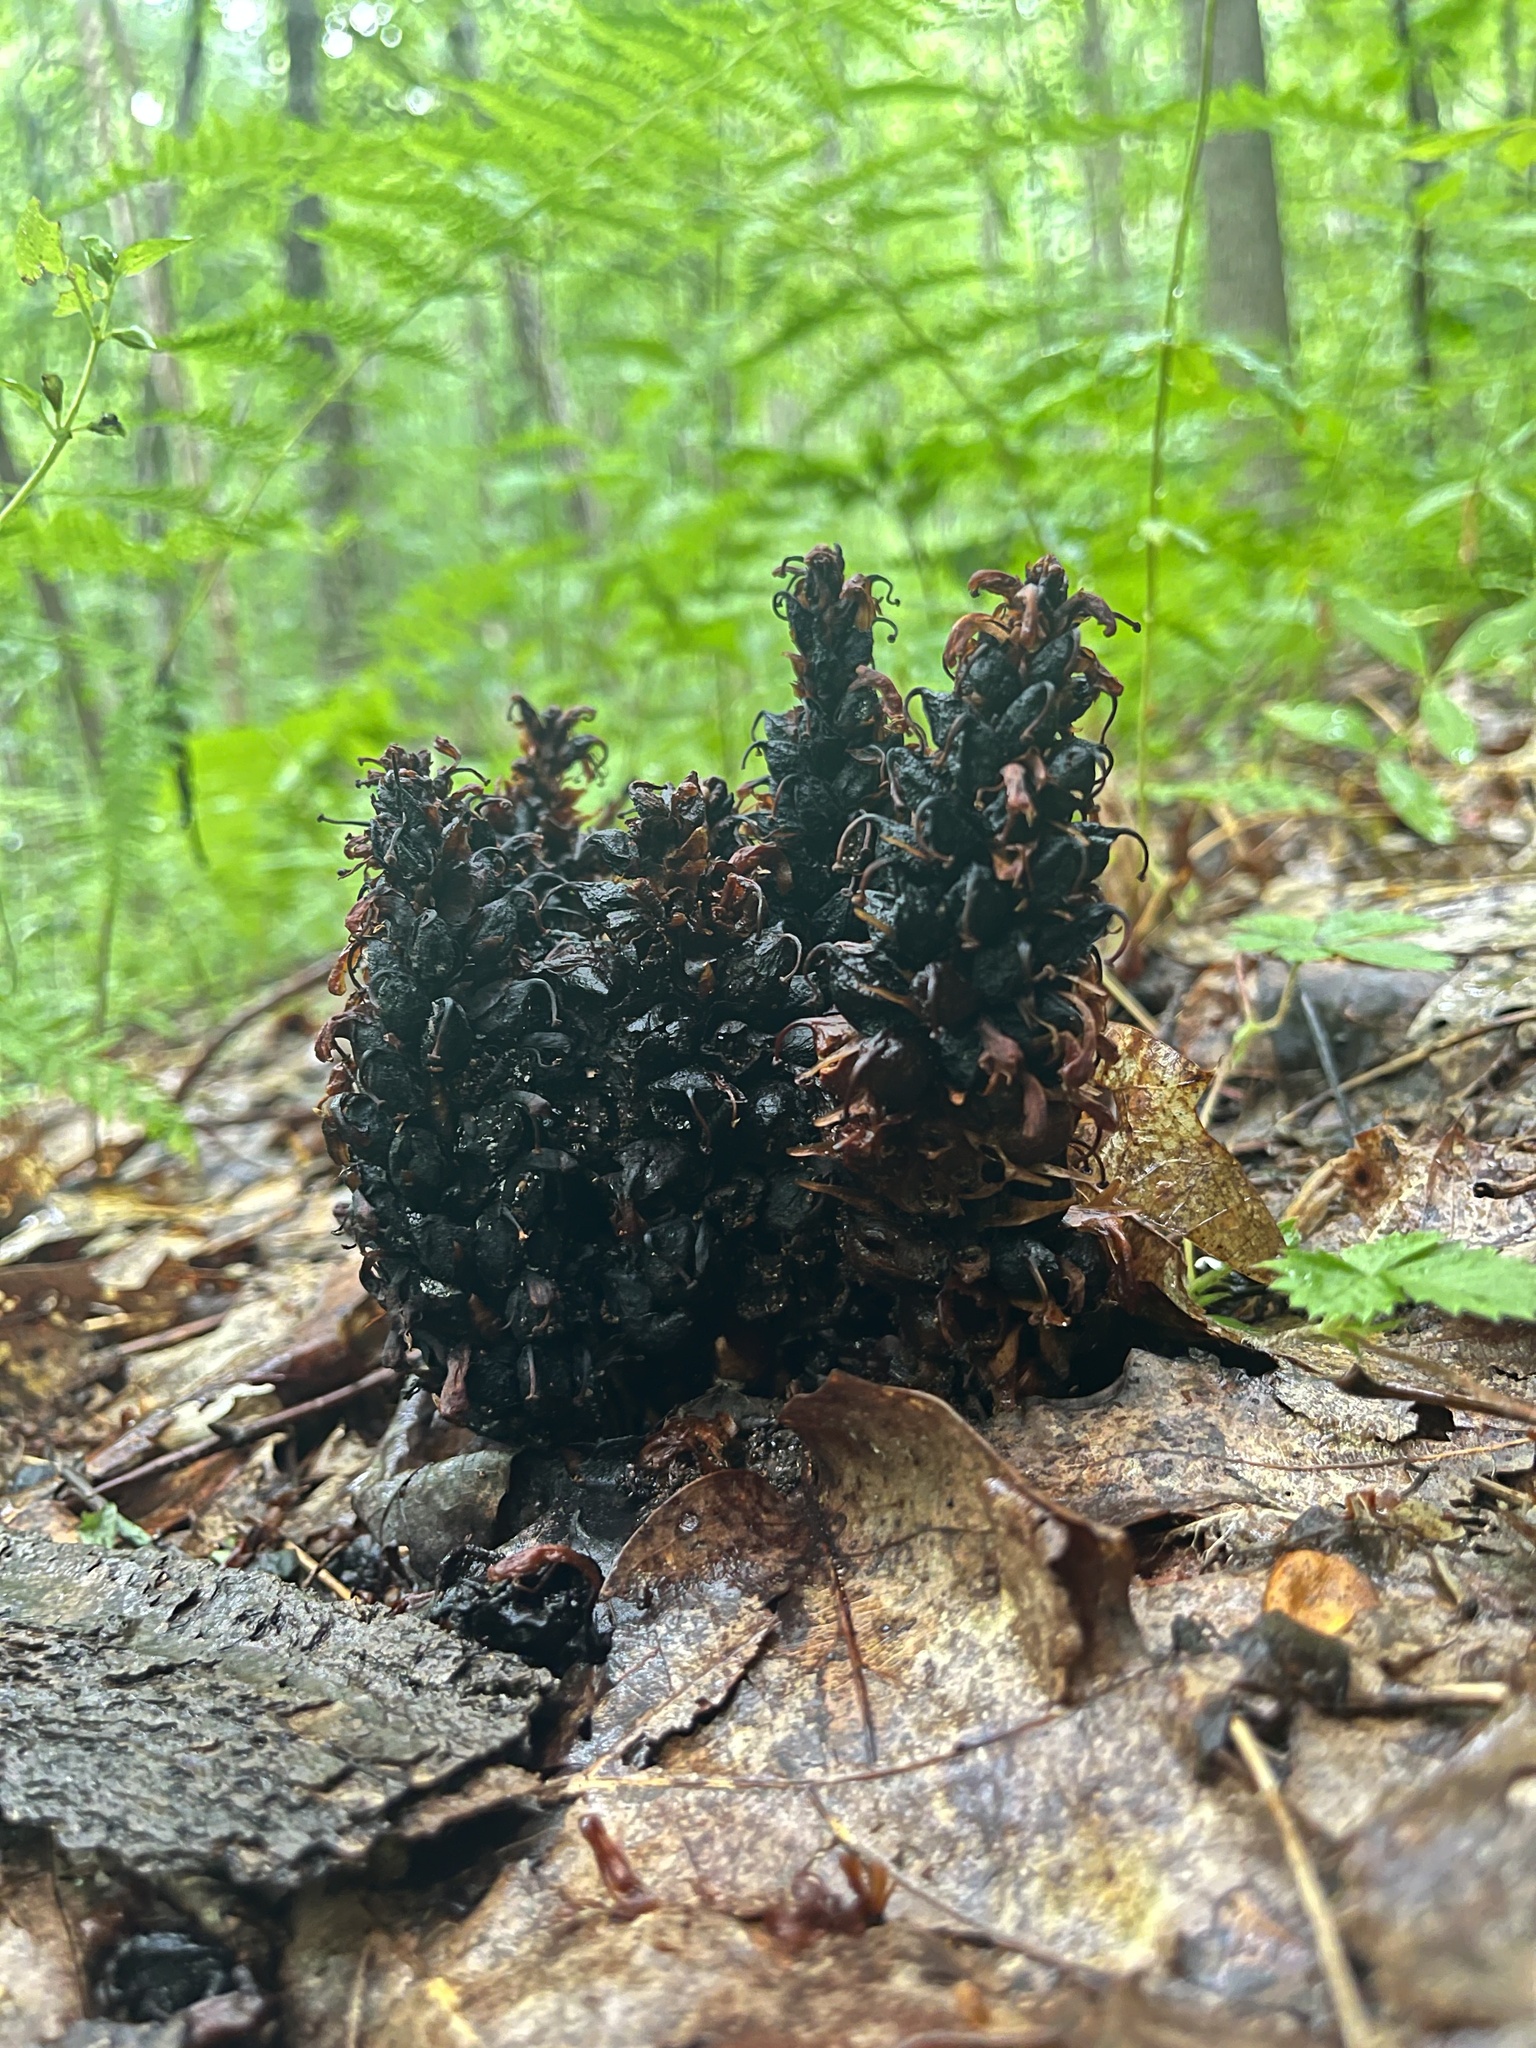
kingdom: Plantae
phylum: Tracheophyta
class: Magnoliopsida
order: Lamiales
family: Orobanchaceae
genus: Conopholis
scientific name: Conopholis americana
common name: American cancer-root
